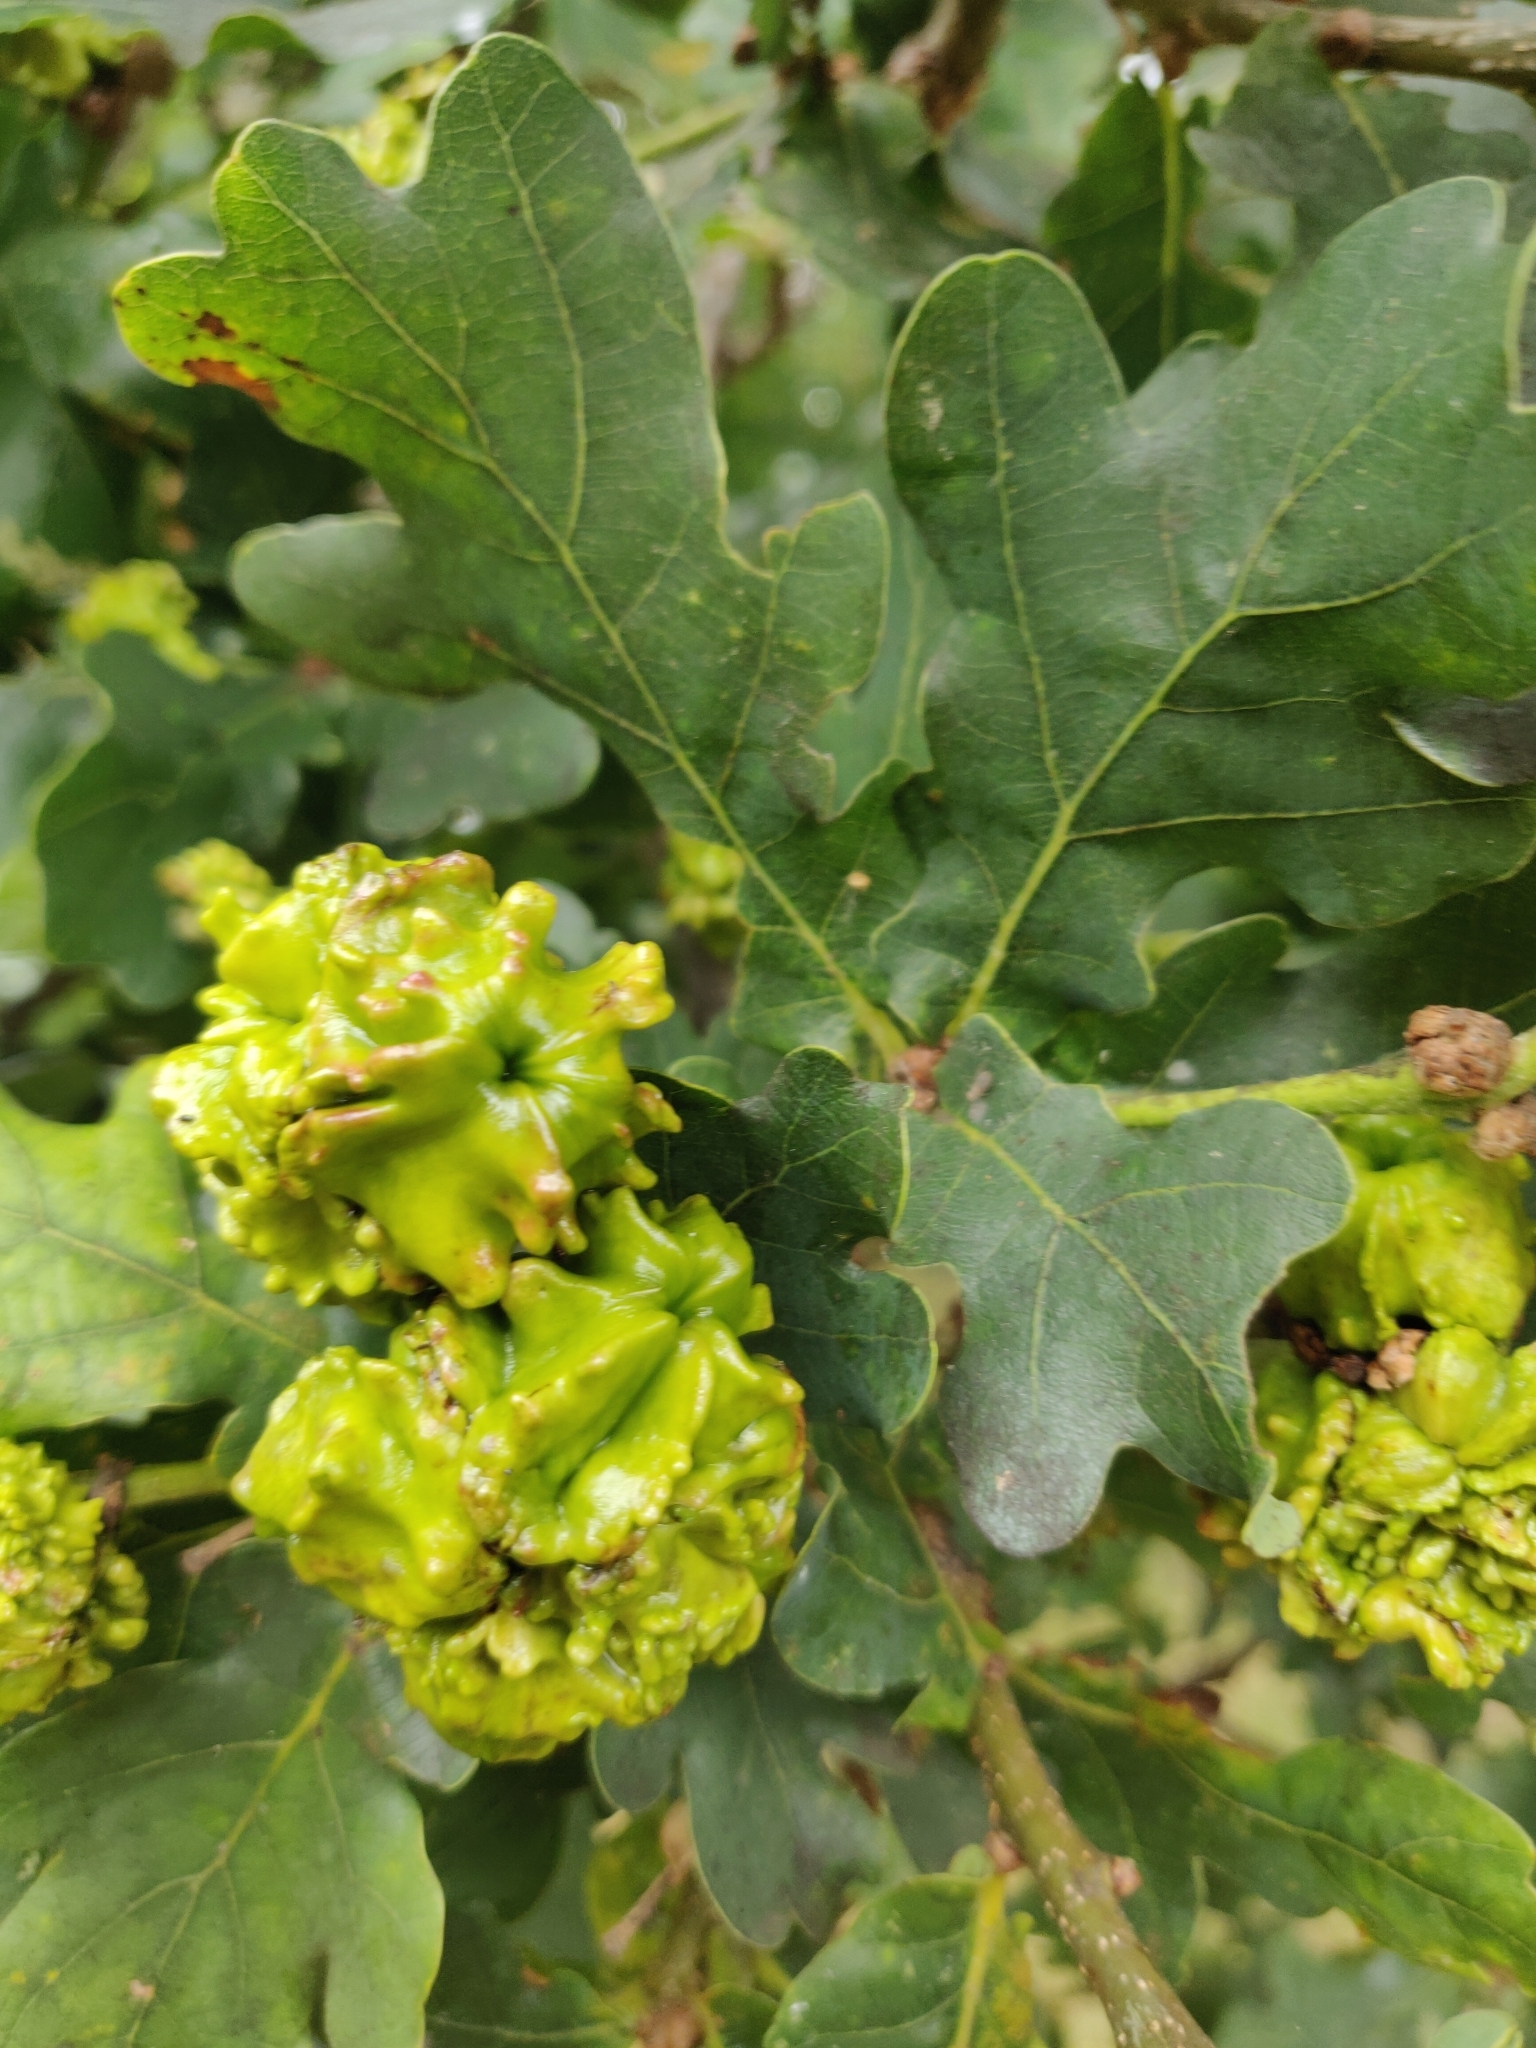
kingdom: Animalia
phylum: Arthropoda
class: Insecta
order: Hymenoptera
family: Cynipidae
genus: Andricus
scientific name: Andricus quercuscalicis
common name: Knopper gall
